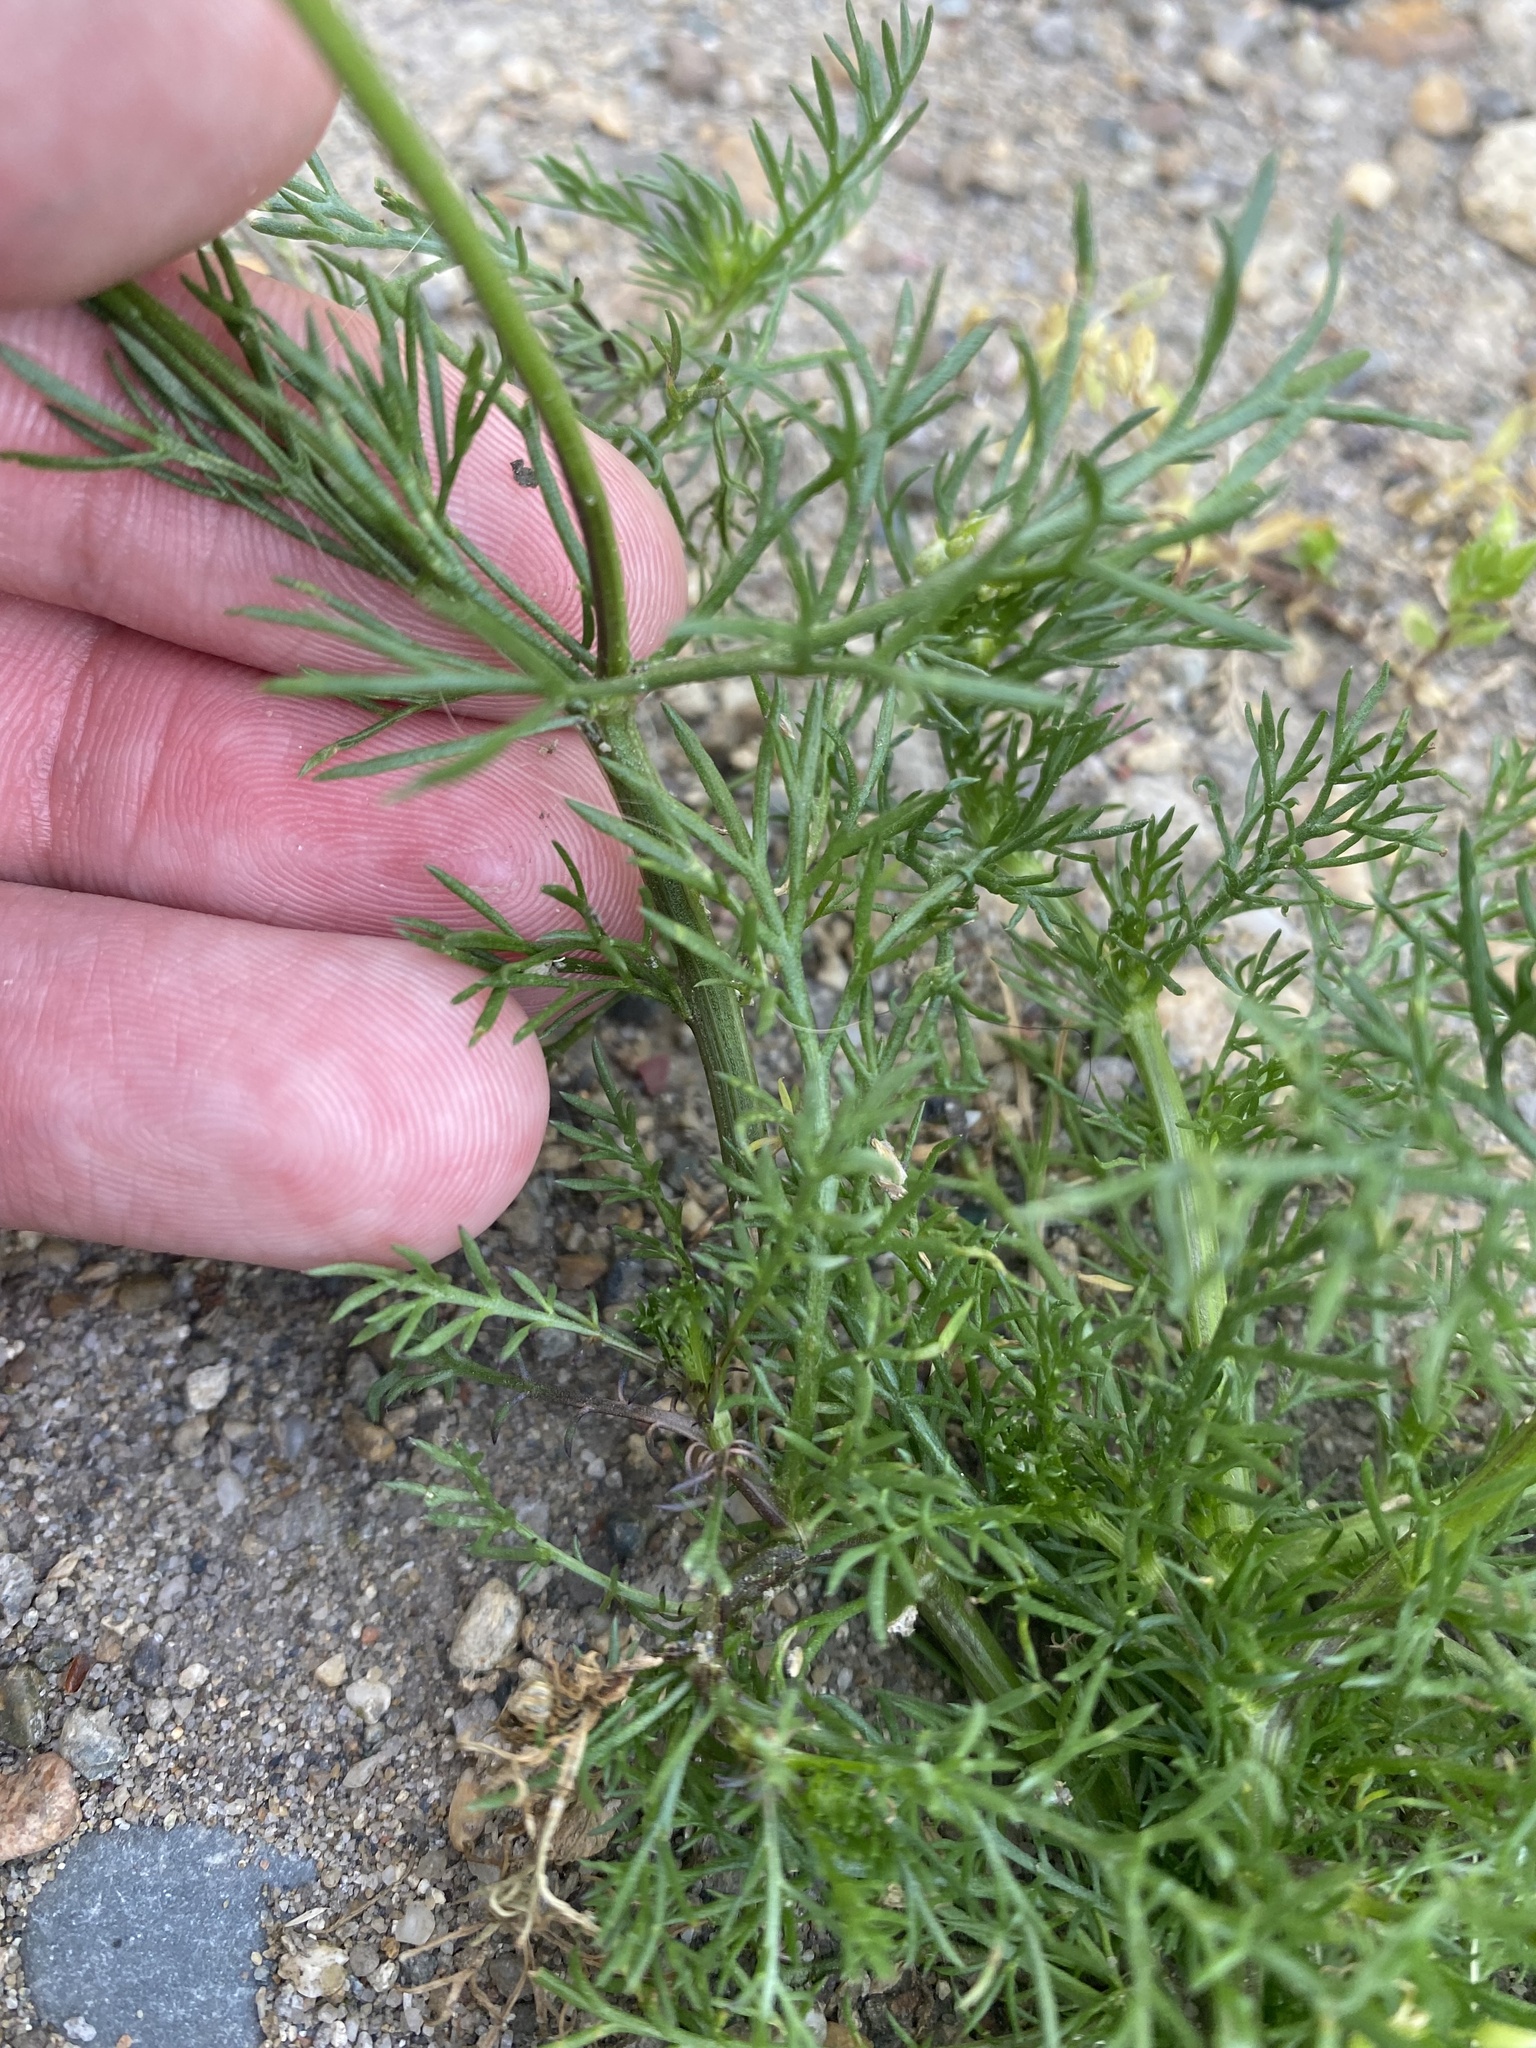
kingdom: Plantae
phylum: Tracheophyta
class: Magnoliopsida
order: Asterales
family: Asteraceae
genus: Matricaria
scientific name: Matricaria chamomilla
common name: Scented mayweed
